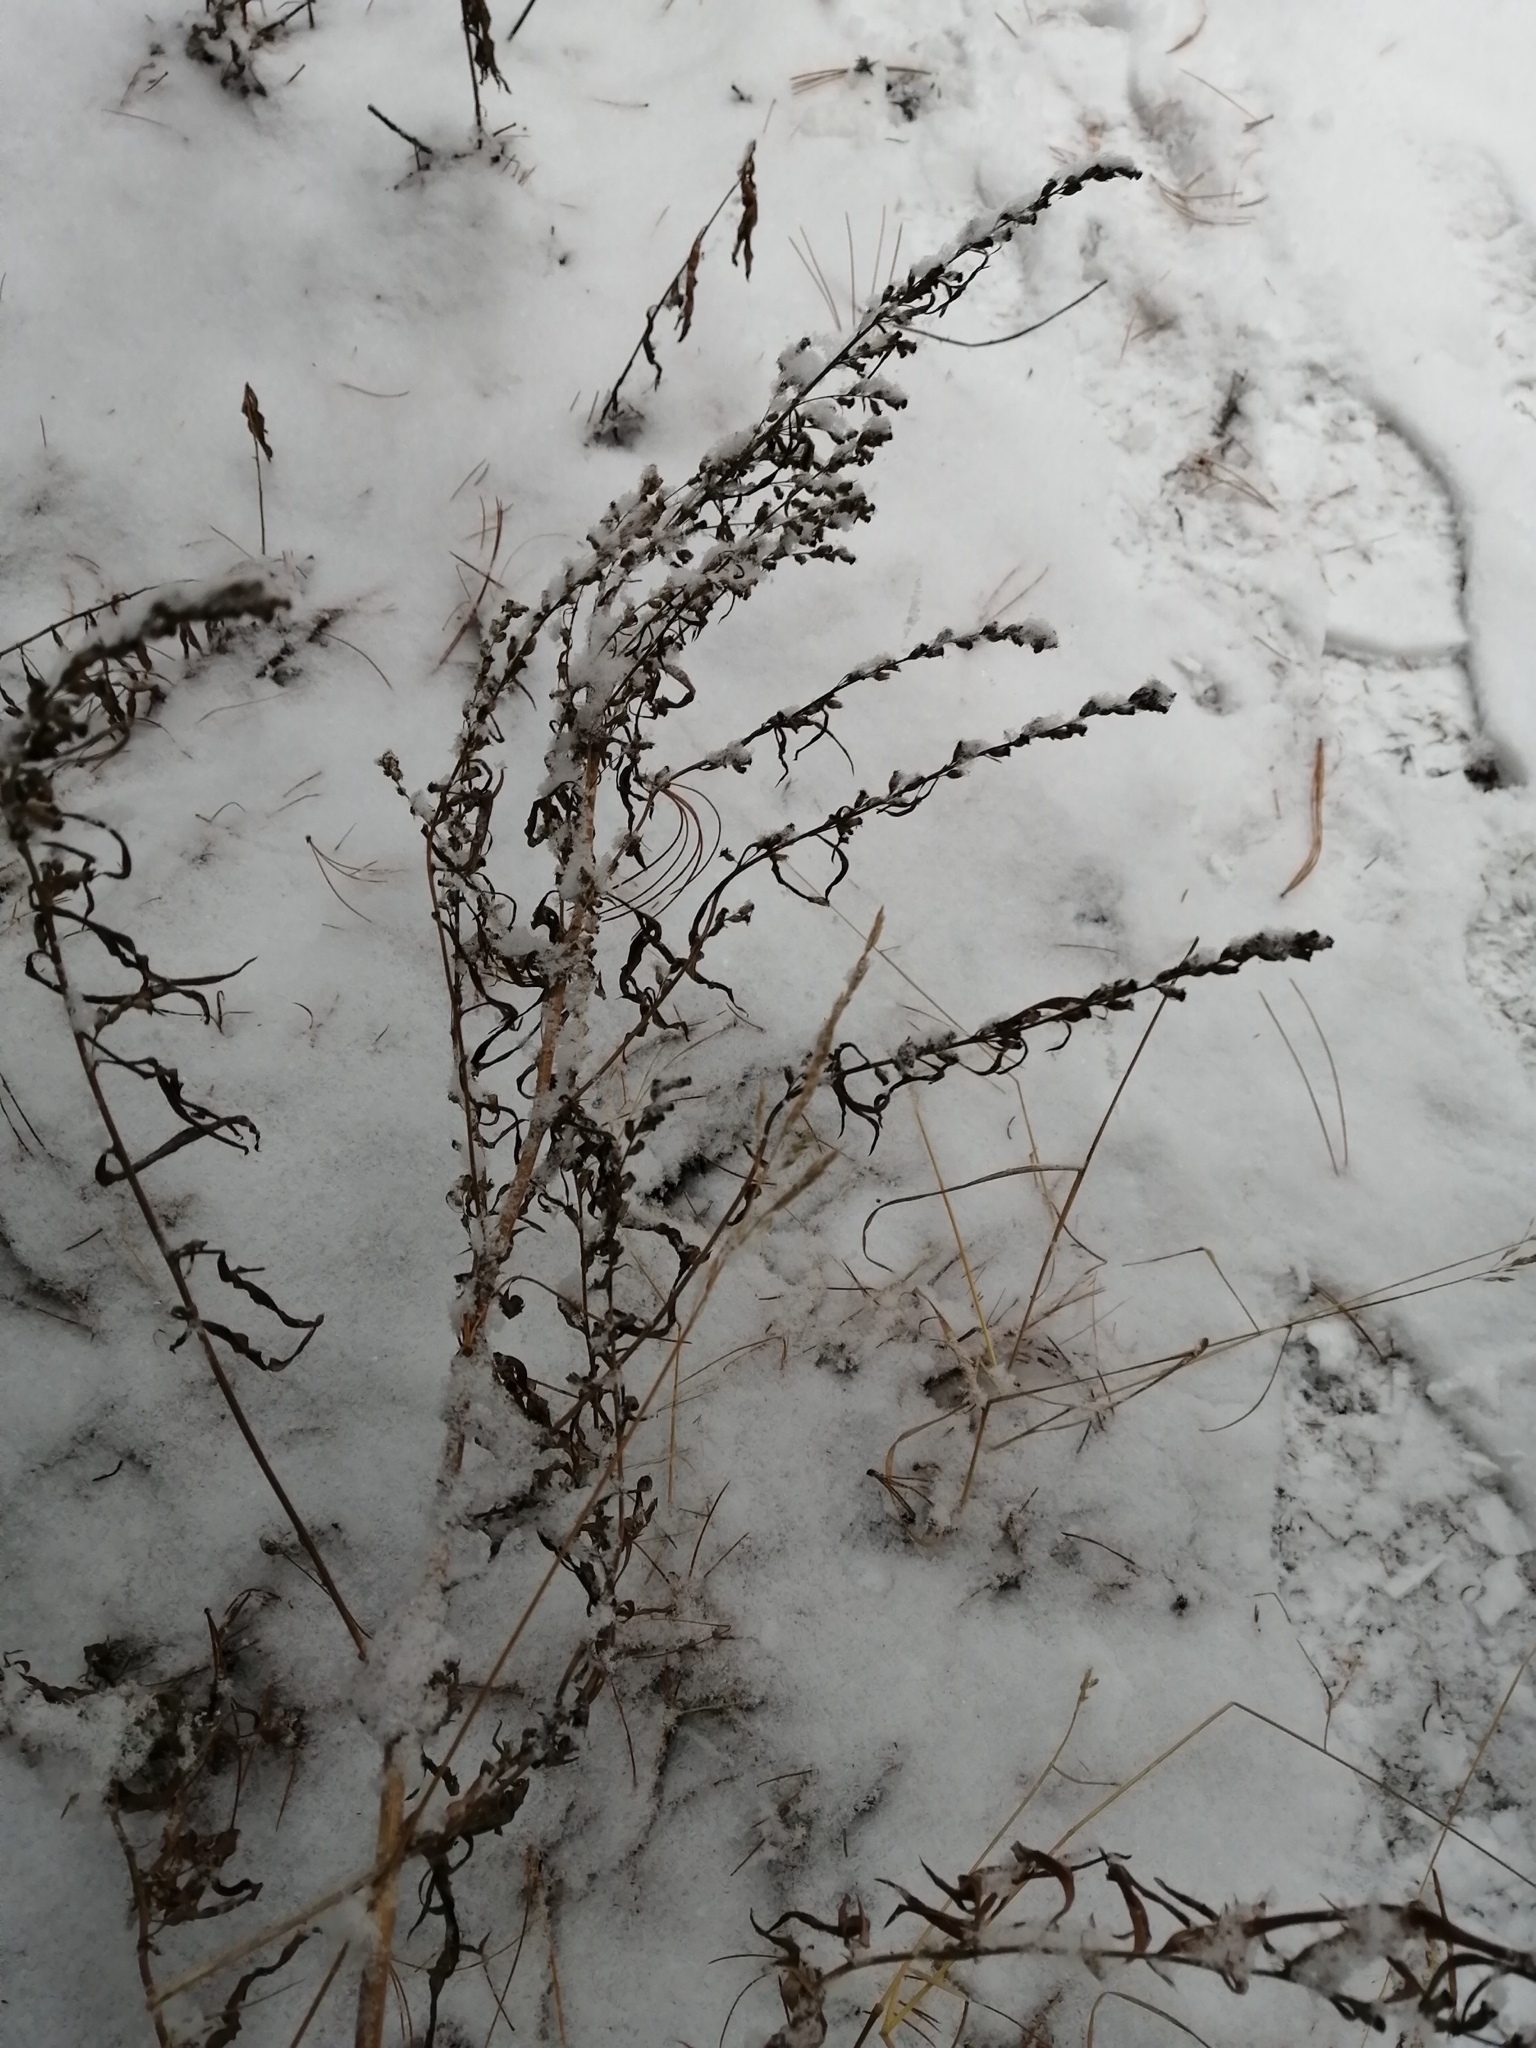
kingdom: Plantae
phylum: Tracheophyta
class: Magnoliopsida
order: Asterales
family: Asteraceae
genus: Artemisia
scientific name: Artemisia vulgaris
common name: Mugwort
